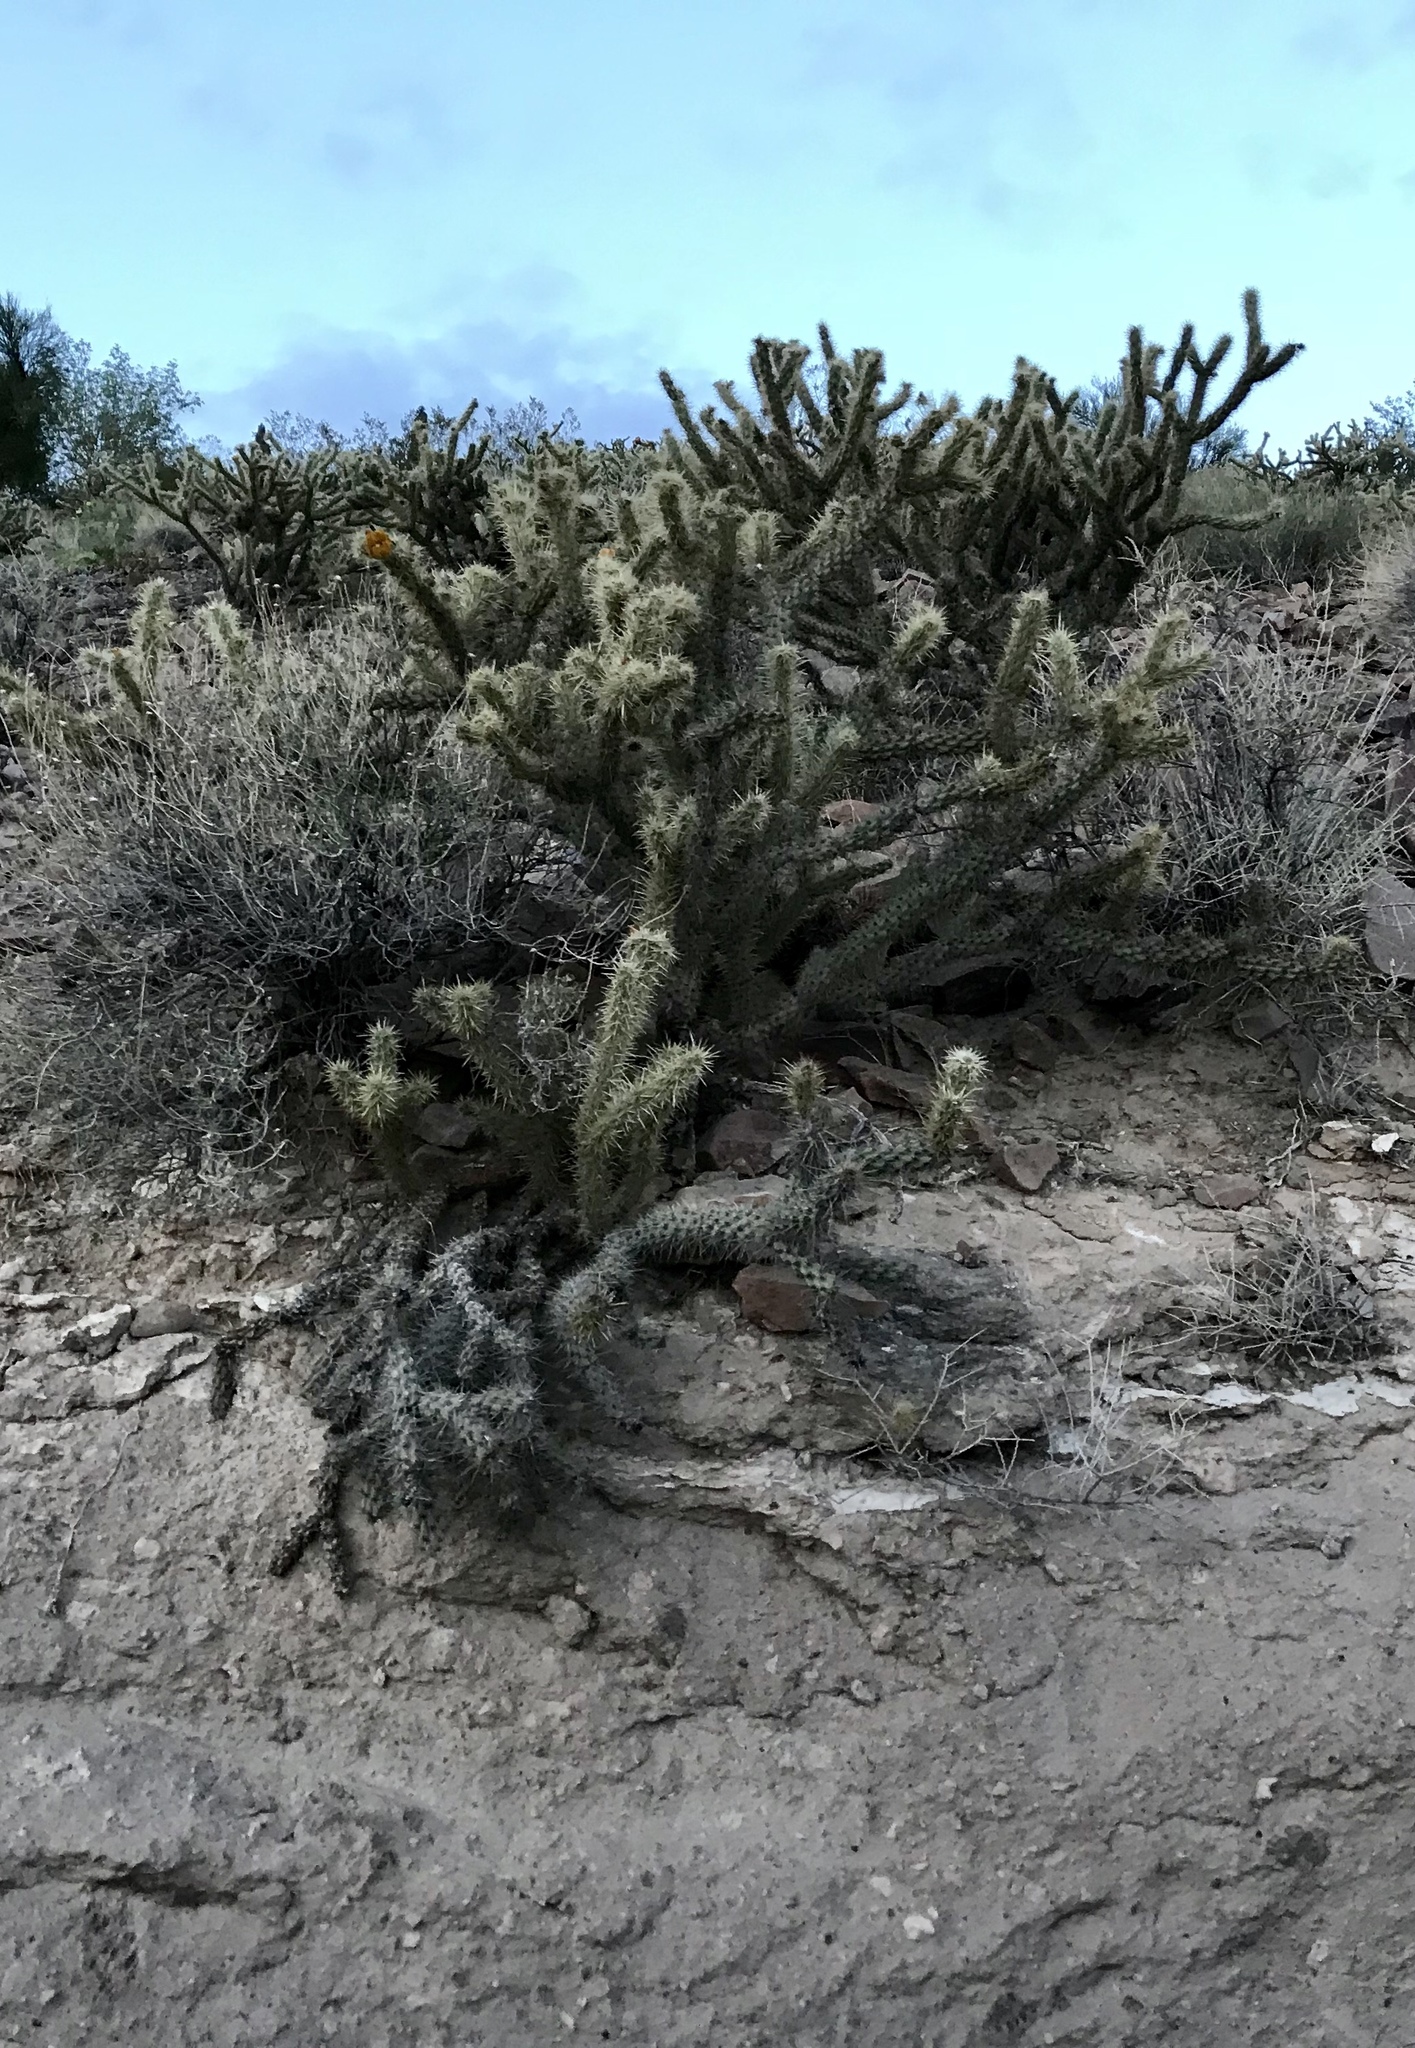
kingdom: Plantae
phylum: Tracheophyta
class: Magnoliopsida
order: Caryophyllales
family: Cactaceae
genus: Cylindropuntia
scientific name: Cylindropuntia acanthocarpa
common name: Buckhorn cholla
